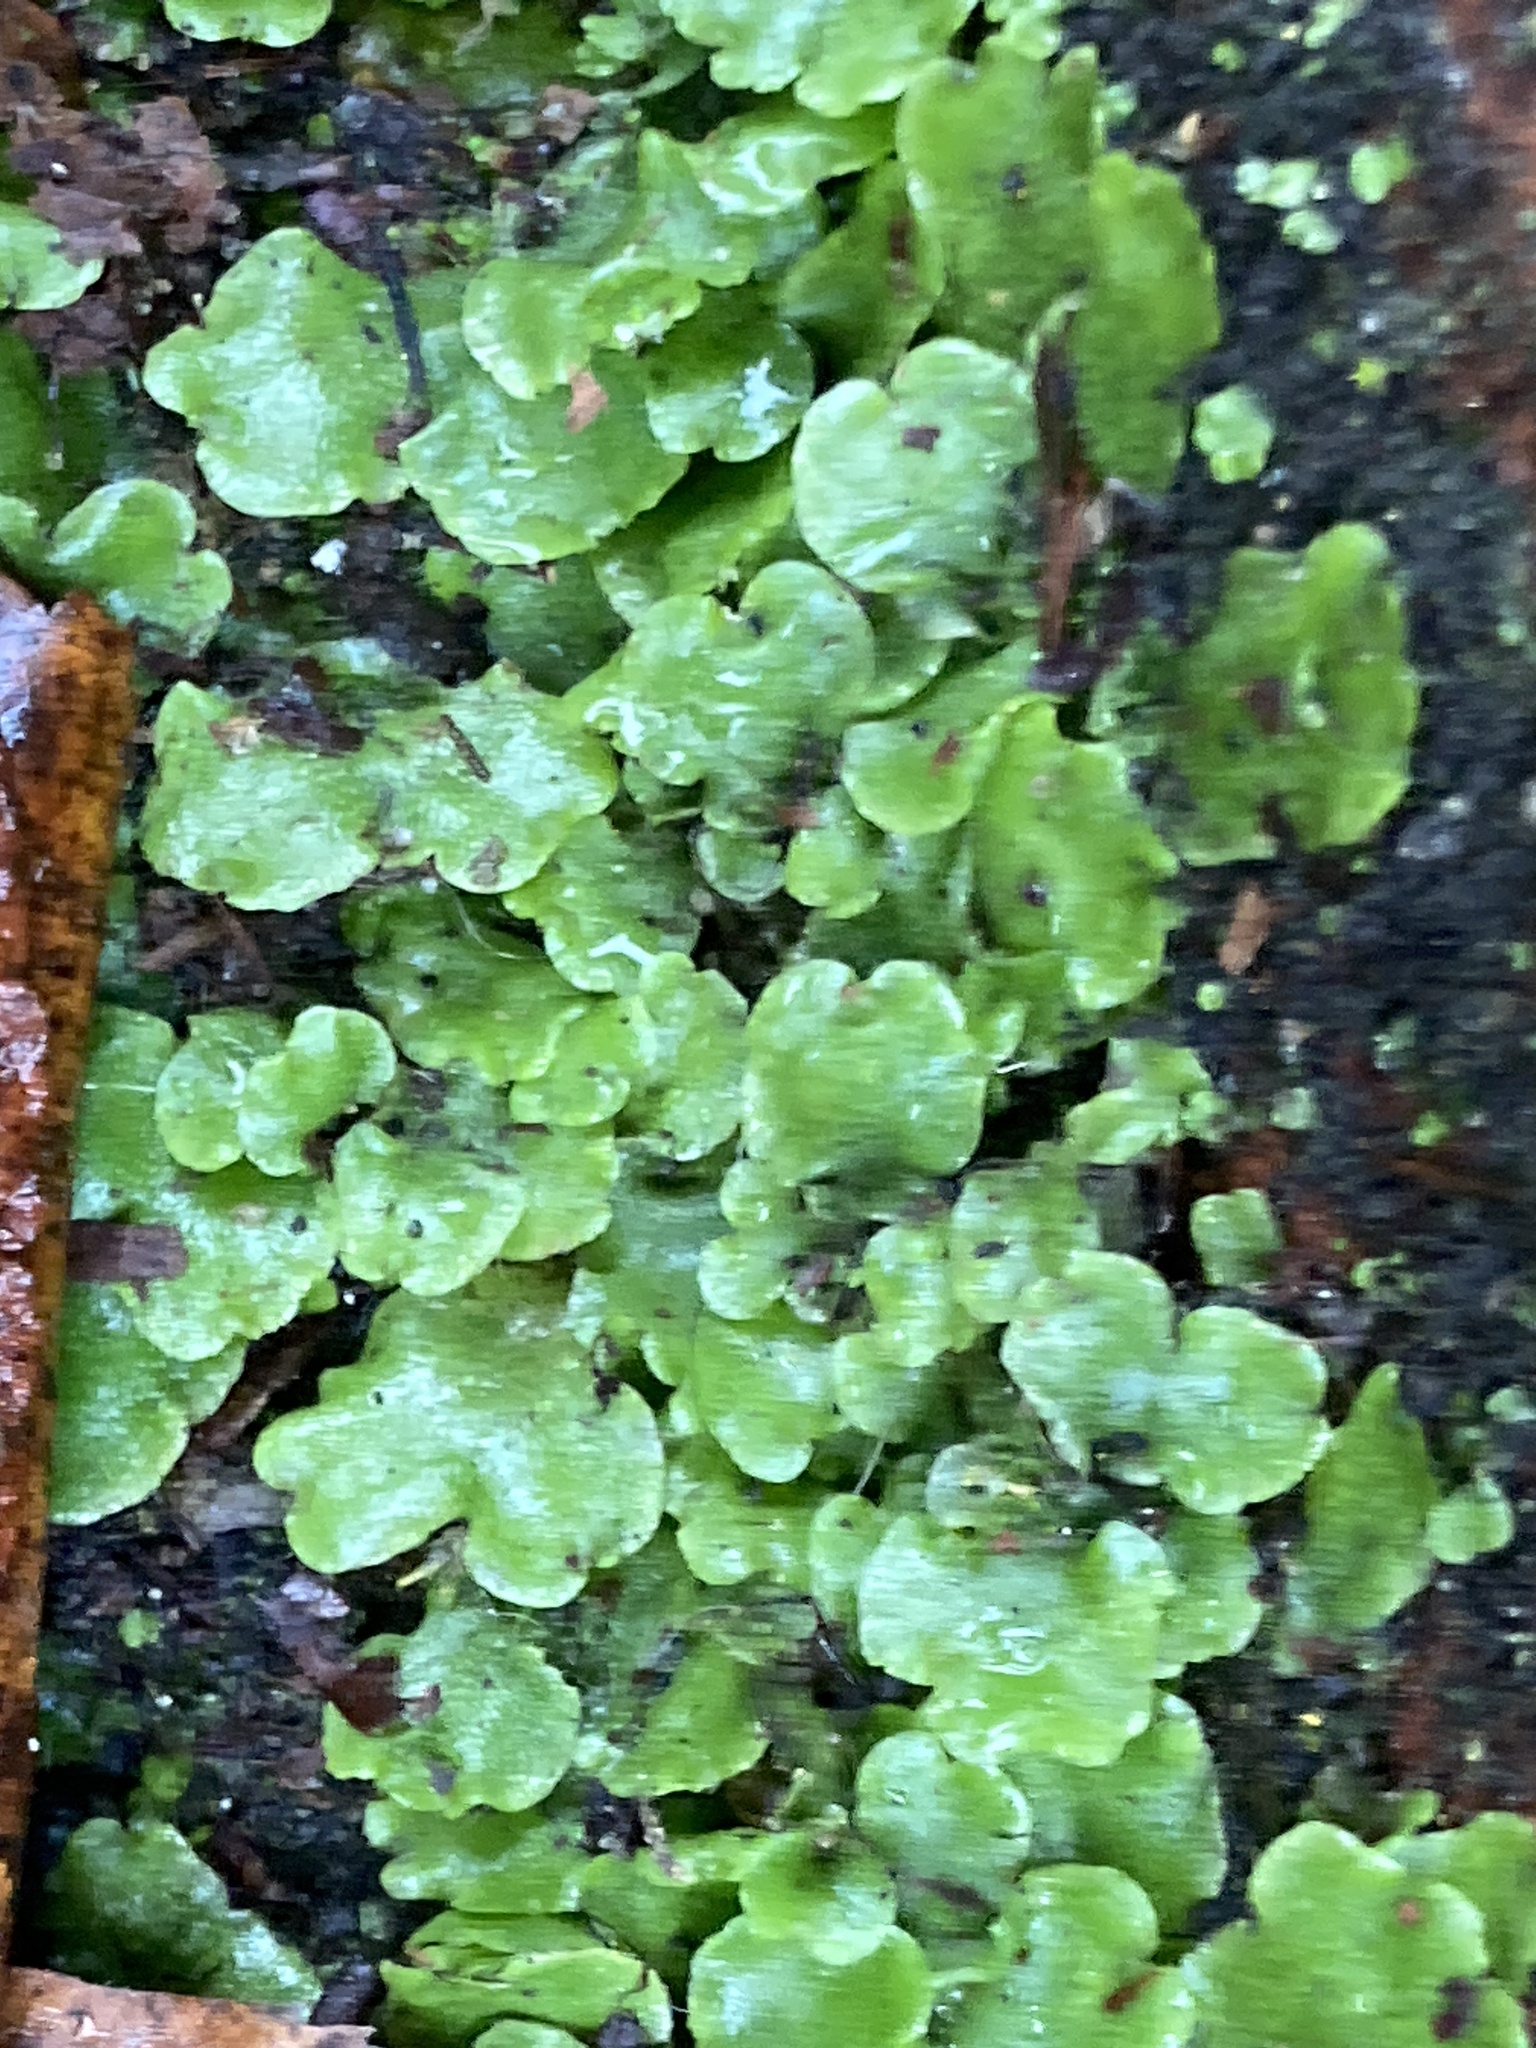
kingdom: Plantae
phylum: Marchantiophyta
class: Marchantiopsida
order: Lunulariales
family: Lunulariaceae
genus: Lunularia
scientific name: Lunularia cruciata
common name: Crescent-cup liverwort
